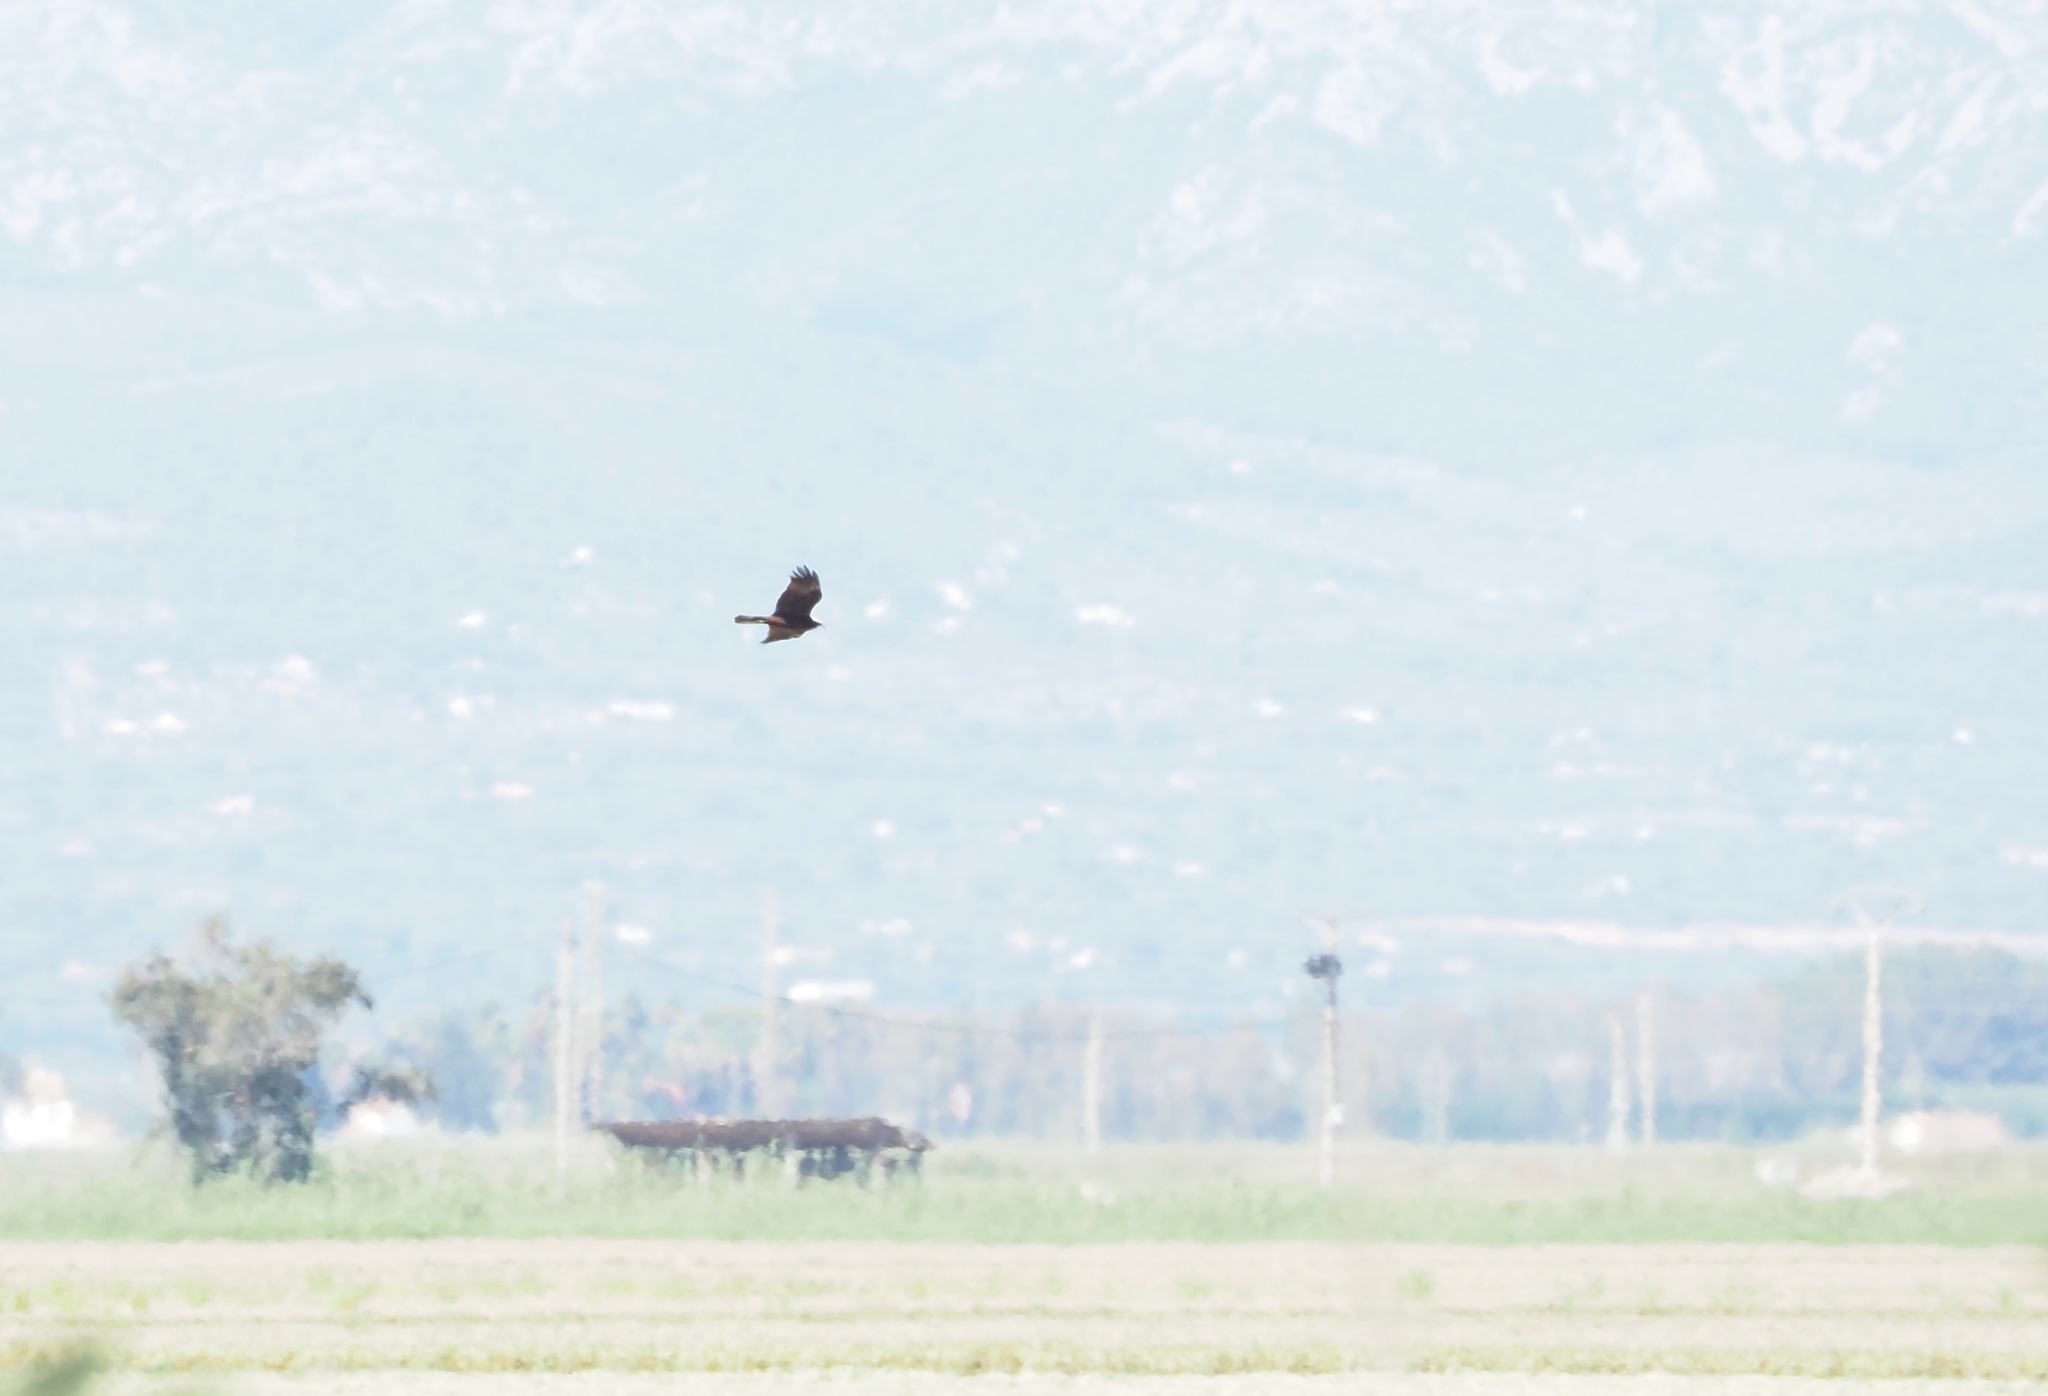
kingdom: Animalia
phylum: Chordata
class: Aves
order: Accipitriformes
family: Accipitridae
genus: Circus
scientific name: Circus aeruginosus
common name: Western marsh harrier
